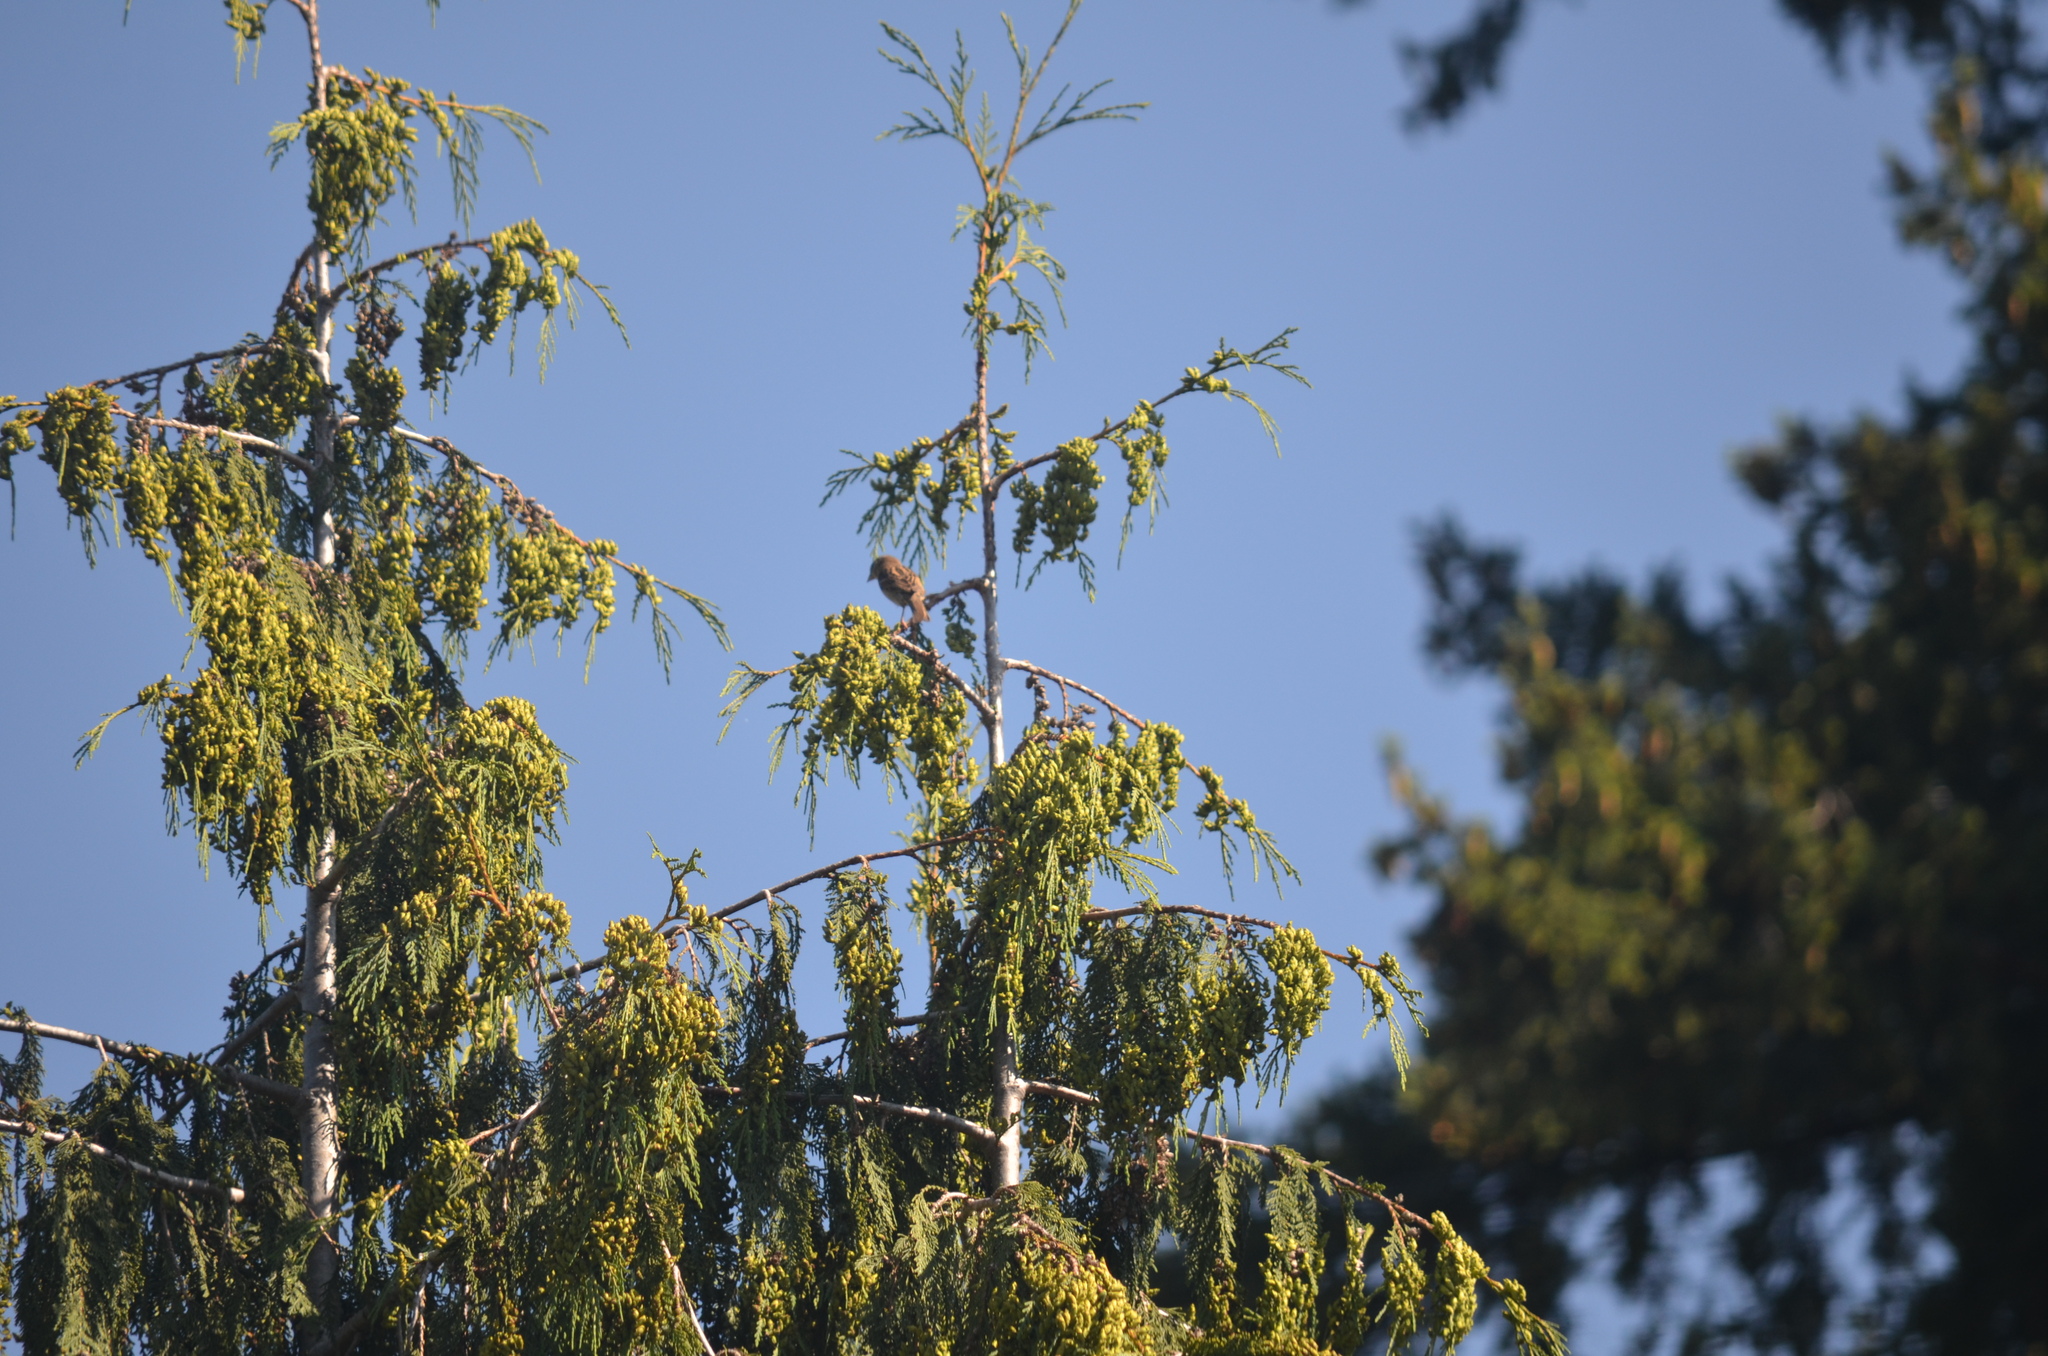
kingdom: Animalia
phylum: Chordata
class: Aves
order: Passeriformes
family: Passeridae
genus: Passer
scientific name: Passer domesticus
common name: House sparrow
